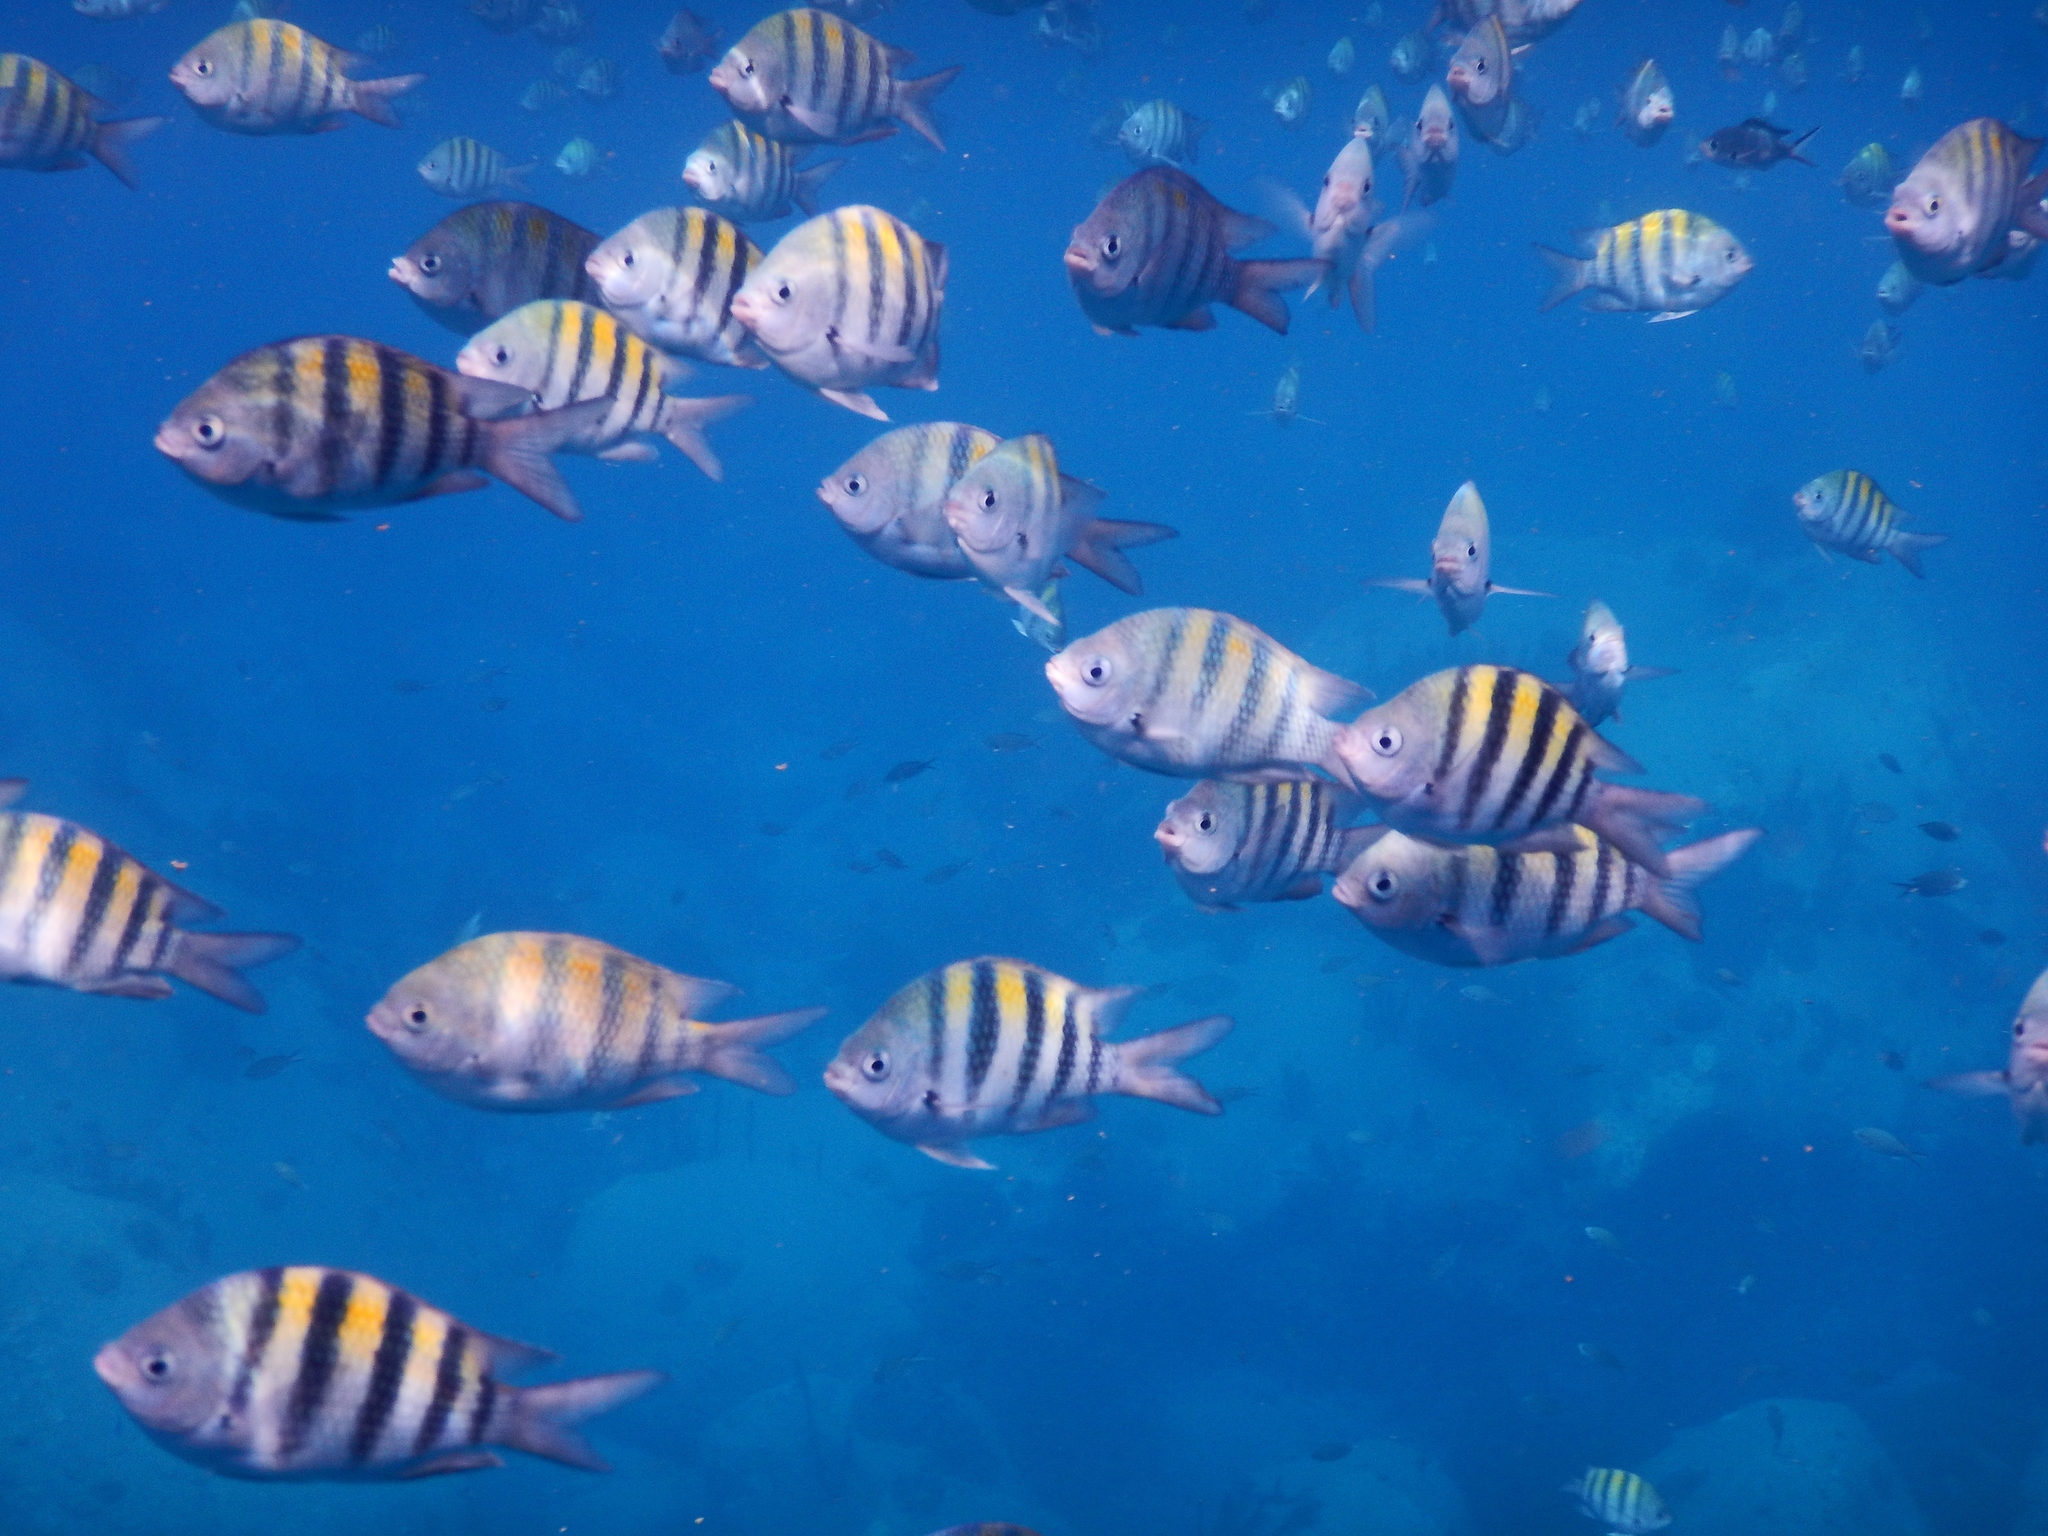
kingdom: Animalia
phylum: Chordata
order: Perciformes
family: Pomacentridae
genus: Abudefduf
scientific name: Abudefduf saxatilis
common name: Sergeant major
